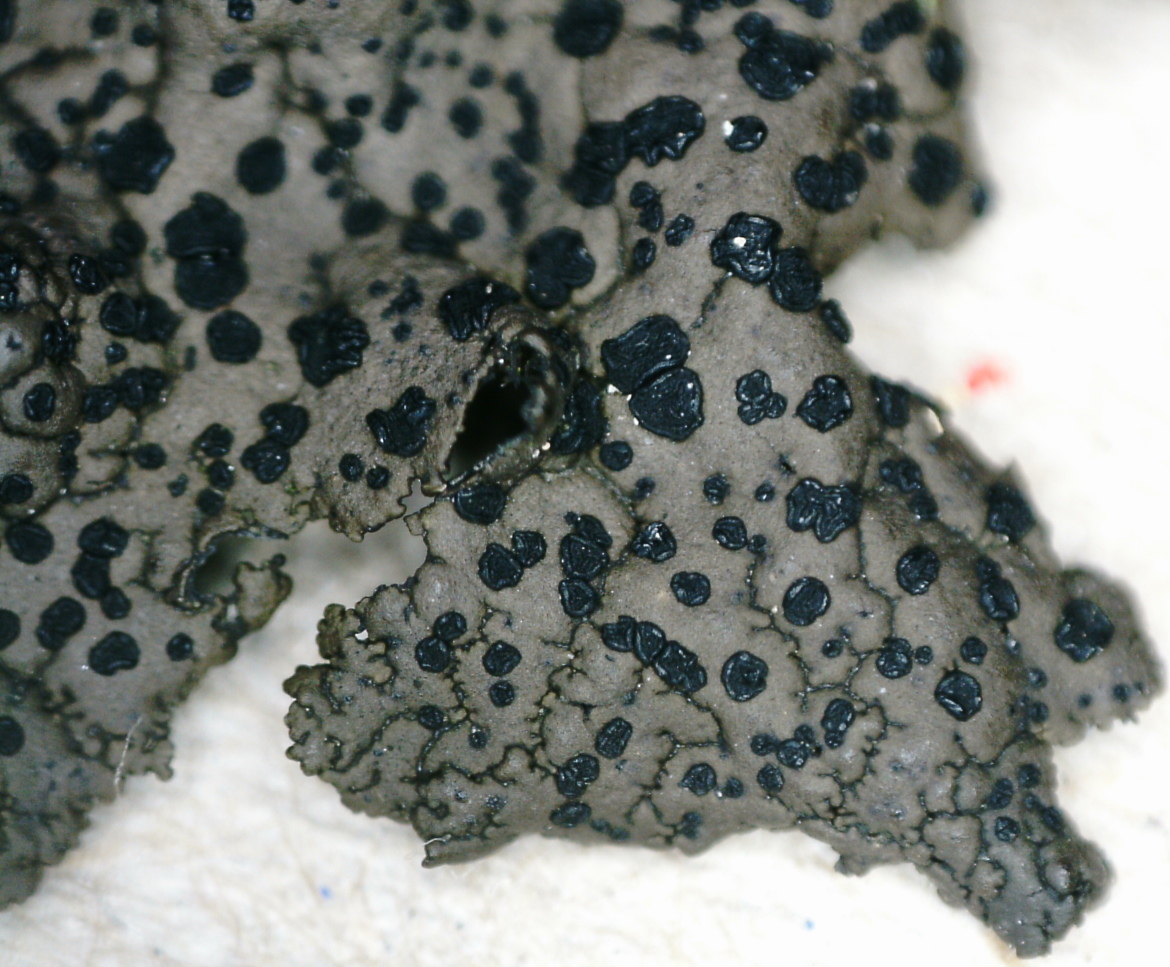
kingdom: Fungi
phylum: Ascomycota
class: Lecanoromycetes
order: Umbilicariales
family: Umbilicariaceae
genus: Umbilicaria
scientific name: Umbilicaria torrefacta
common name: Punctured rock tripe lichen
